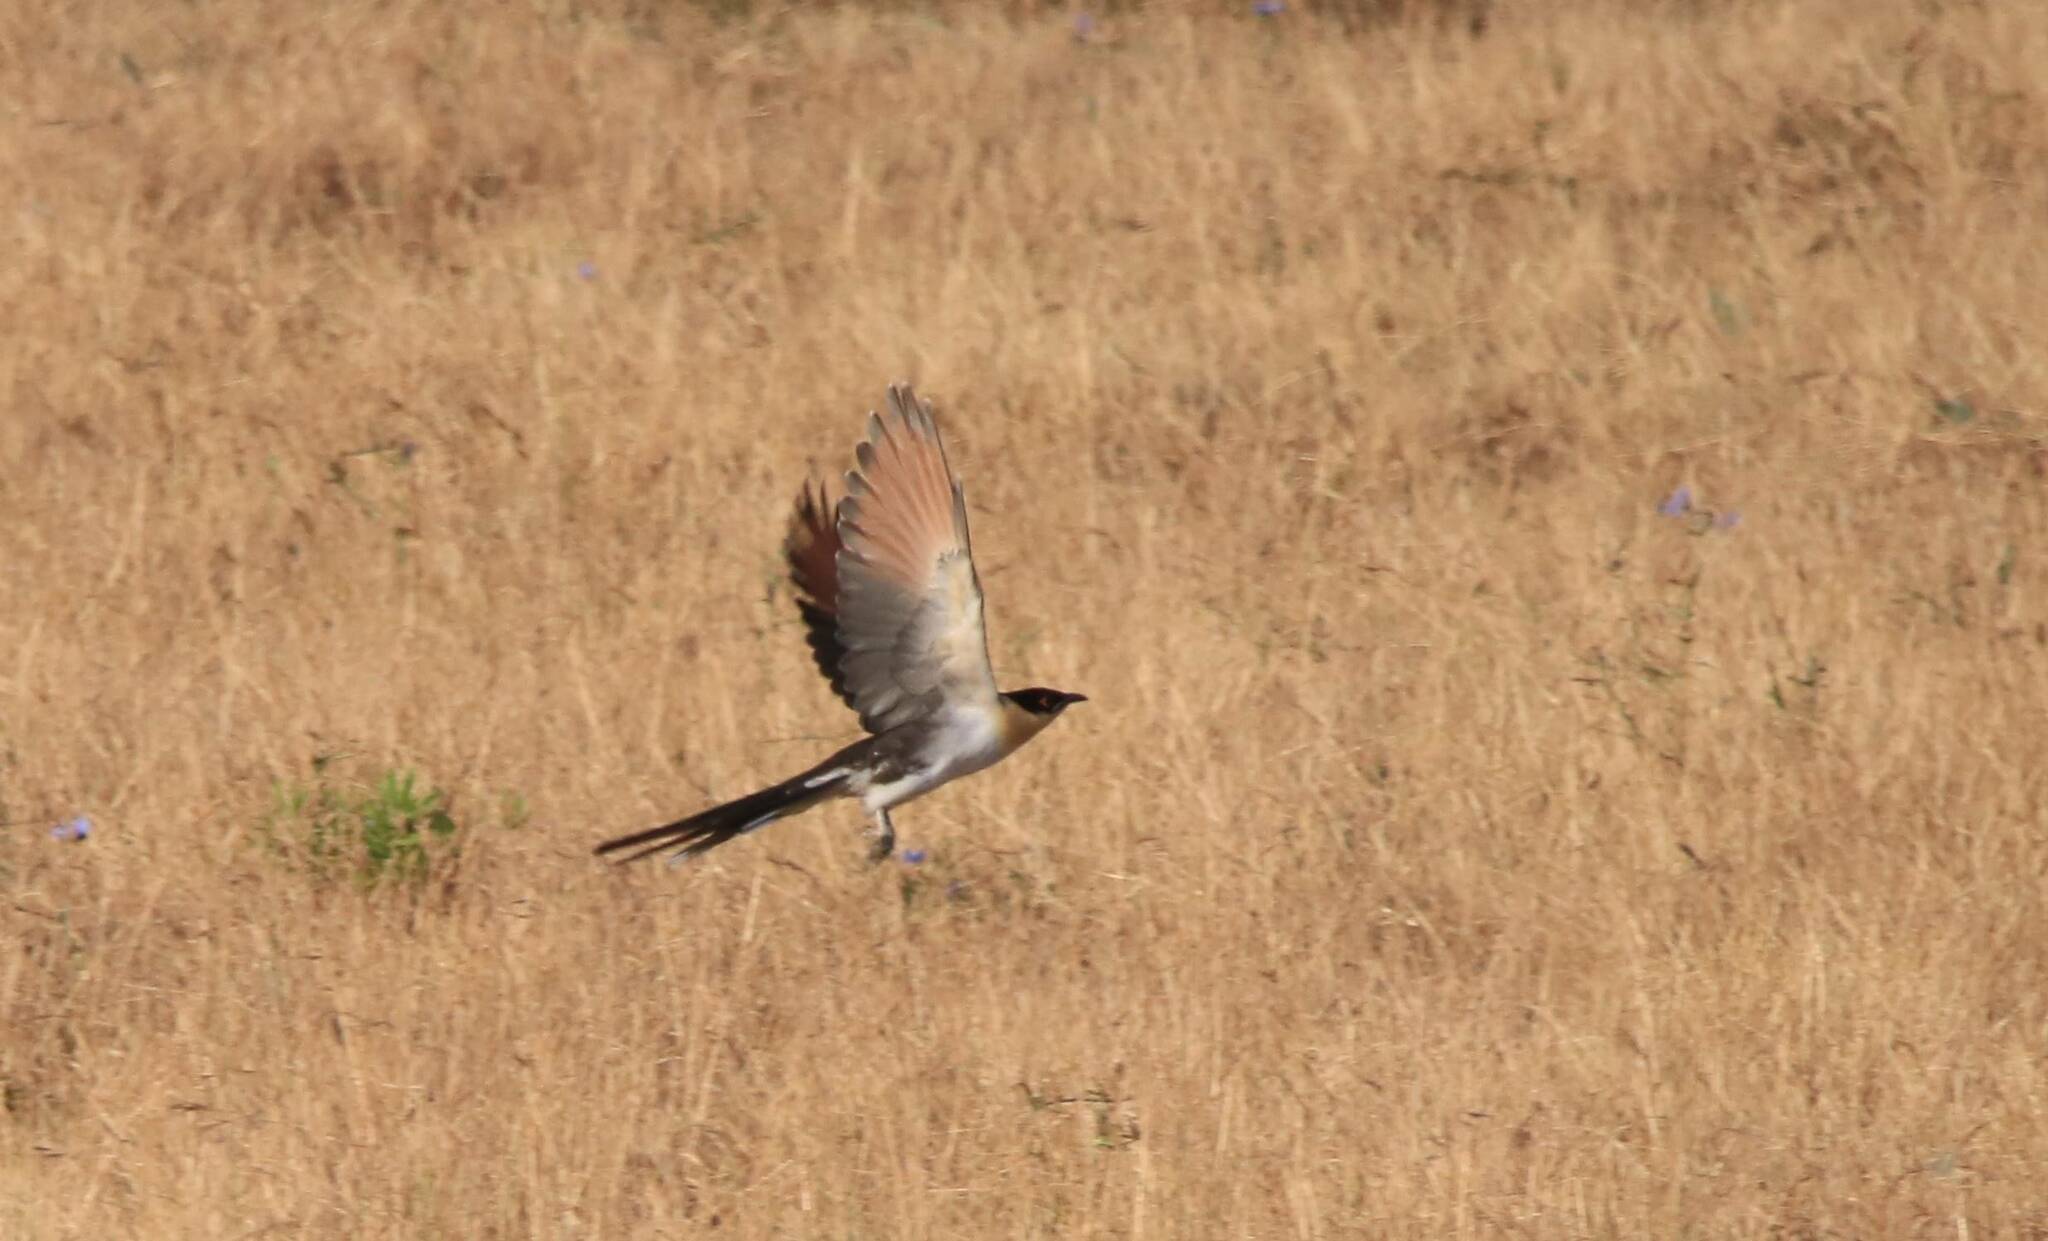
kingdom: Animalia
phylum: Chordata
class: Aves
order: Cuculiformes
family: Cuculidae
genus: Clamator
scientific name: Clamator glandarius
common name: Great spotted cuckoo
